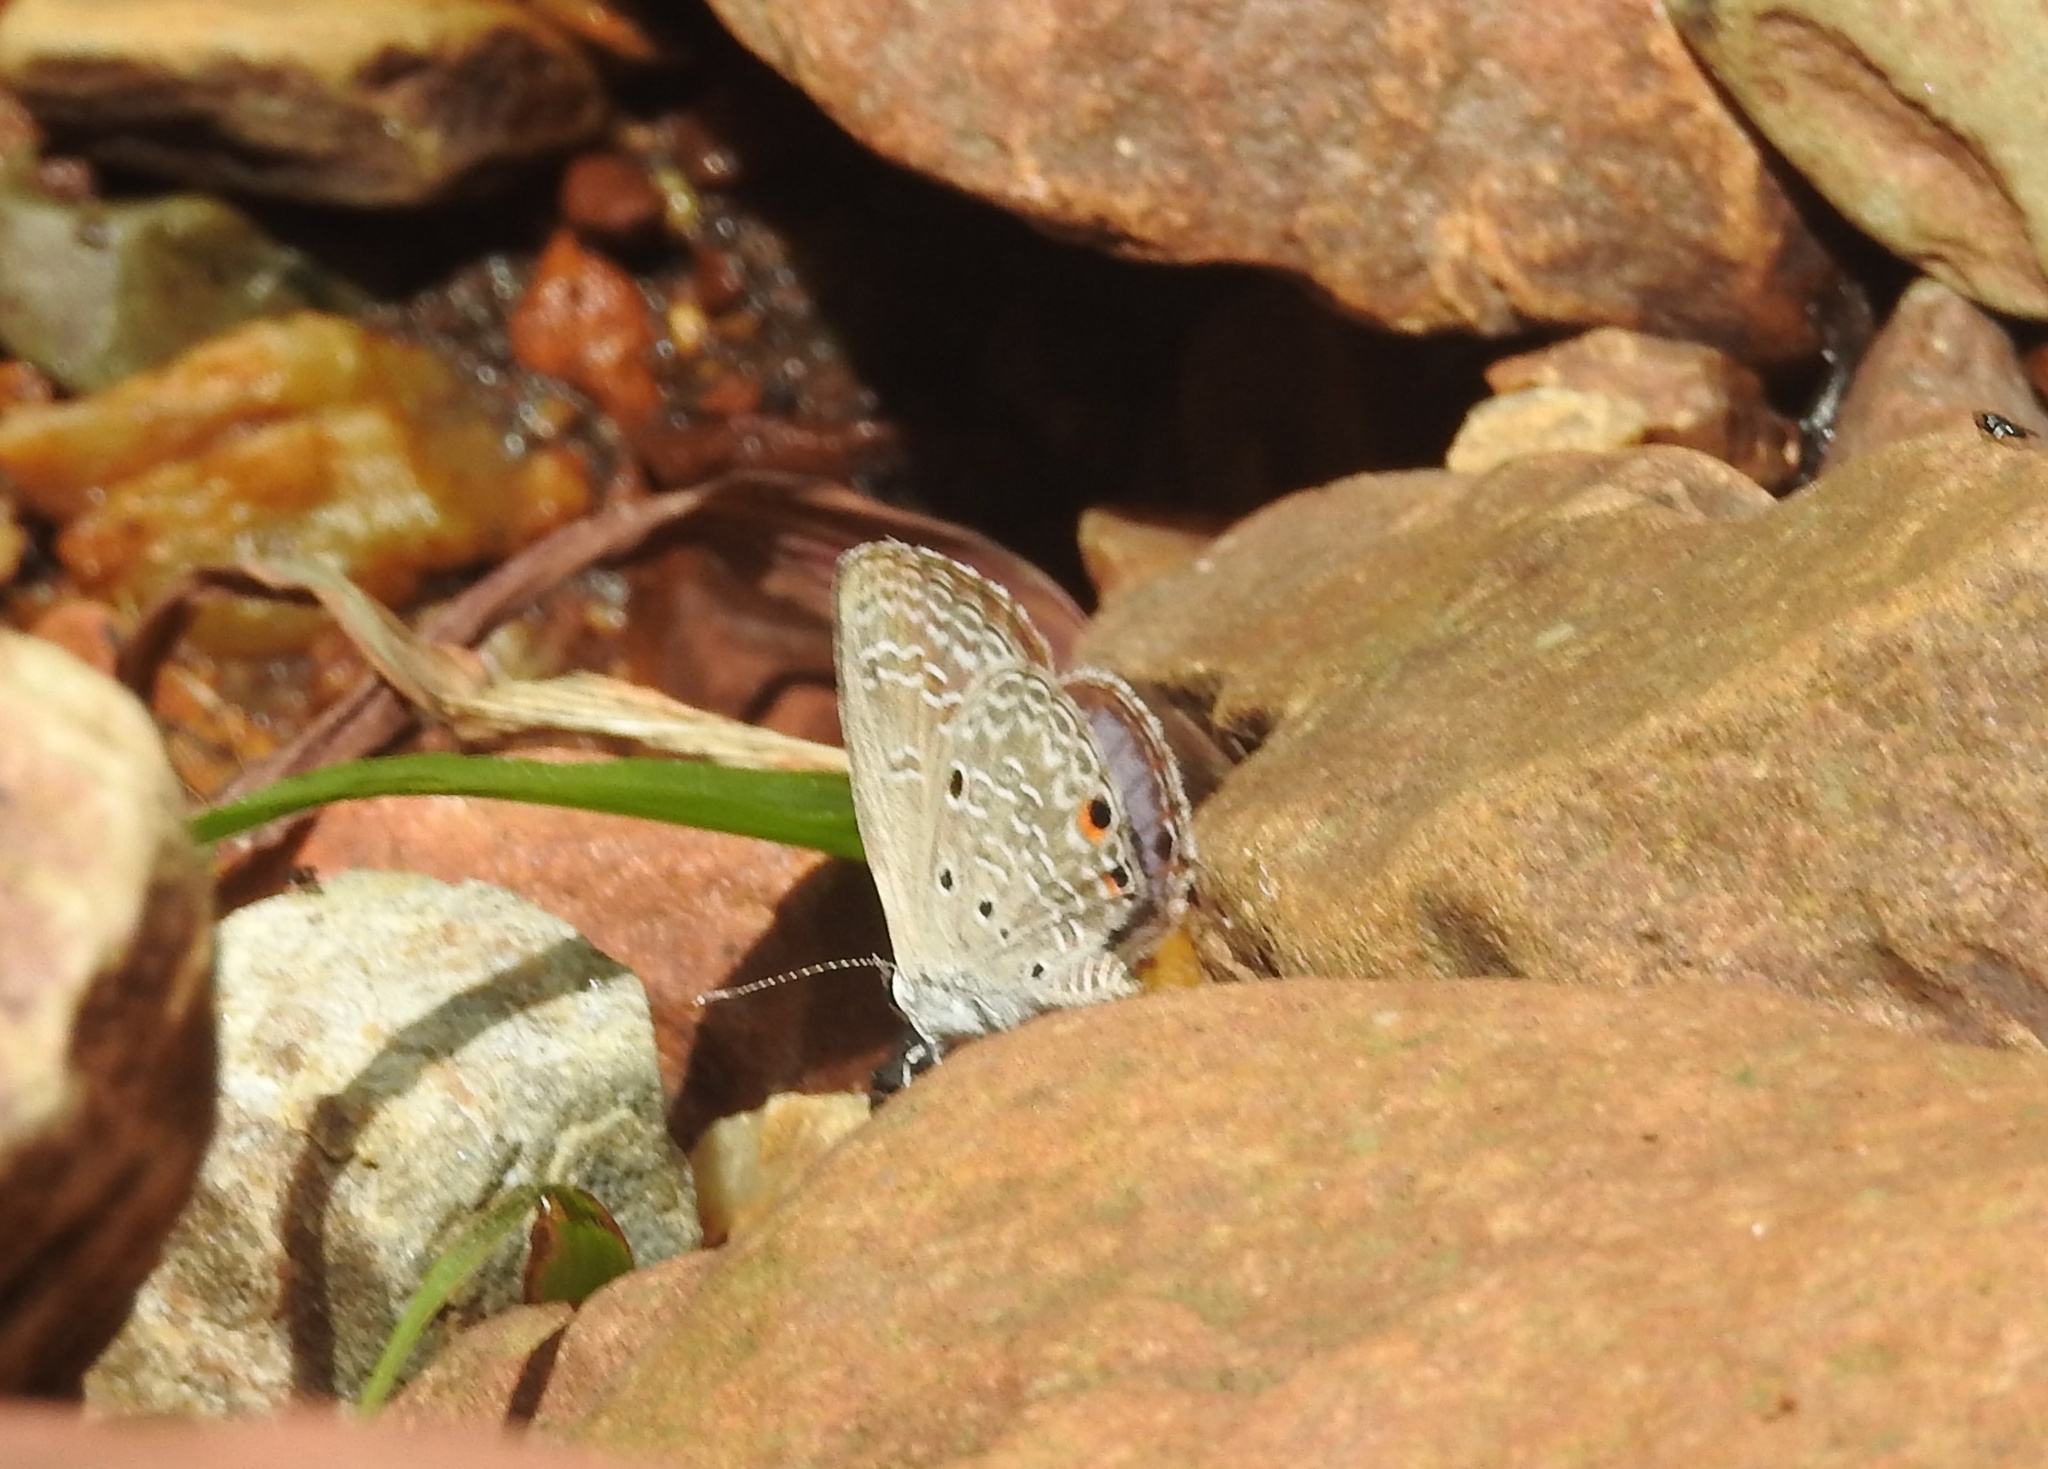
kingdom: Animalia
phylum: Arthropoda
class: Insecta
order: Lepidoptera
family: Lycaenidae
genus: Luthrodes
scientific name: Luthrodes pandava
